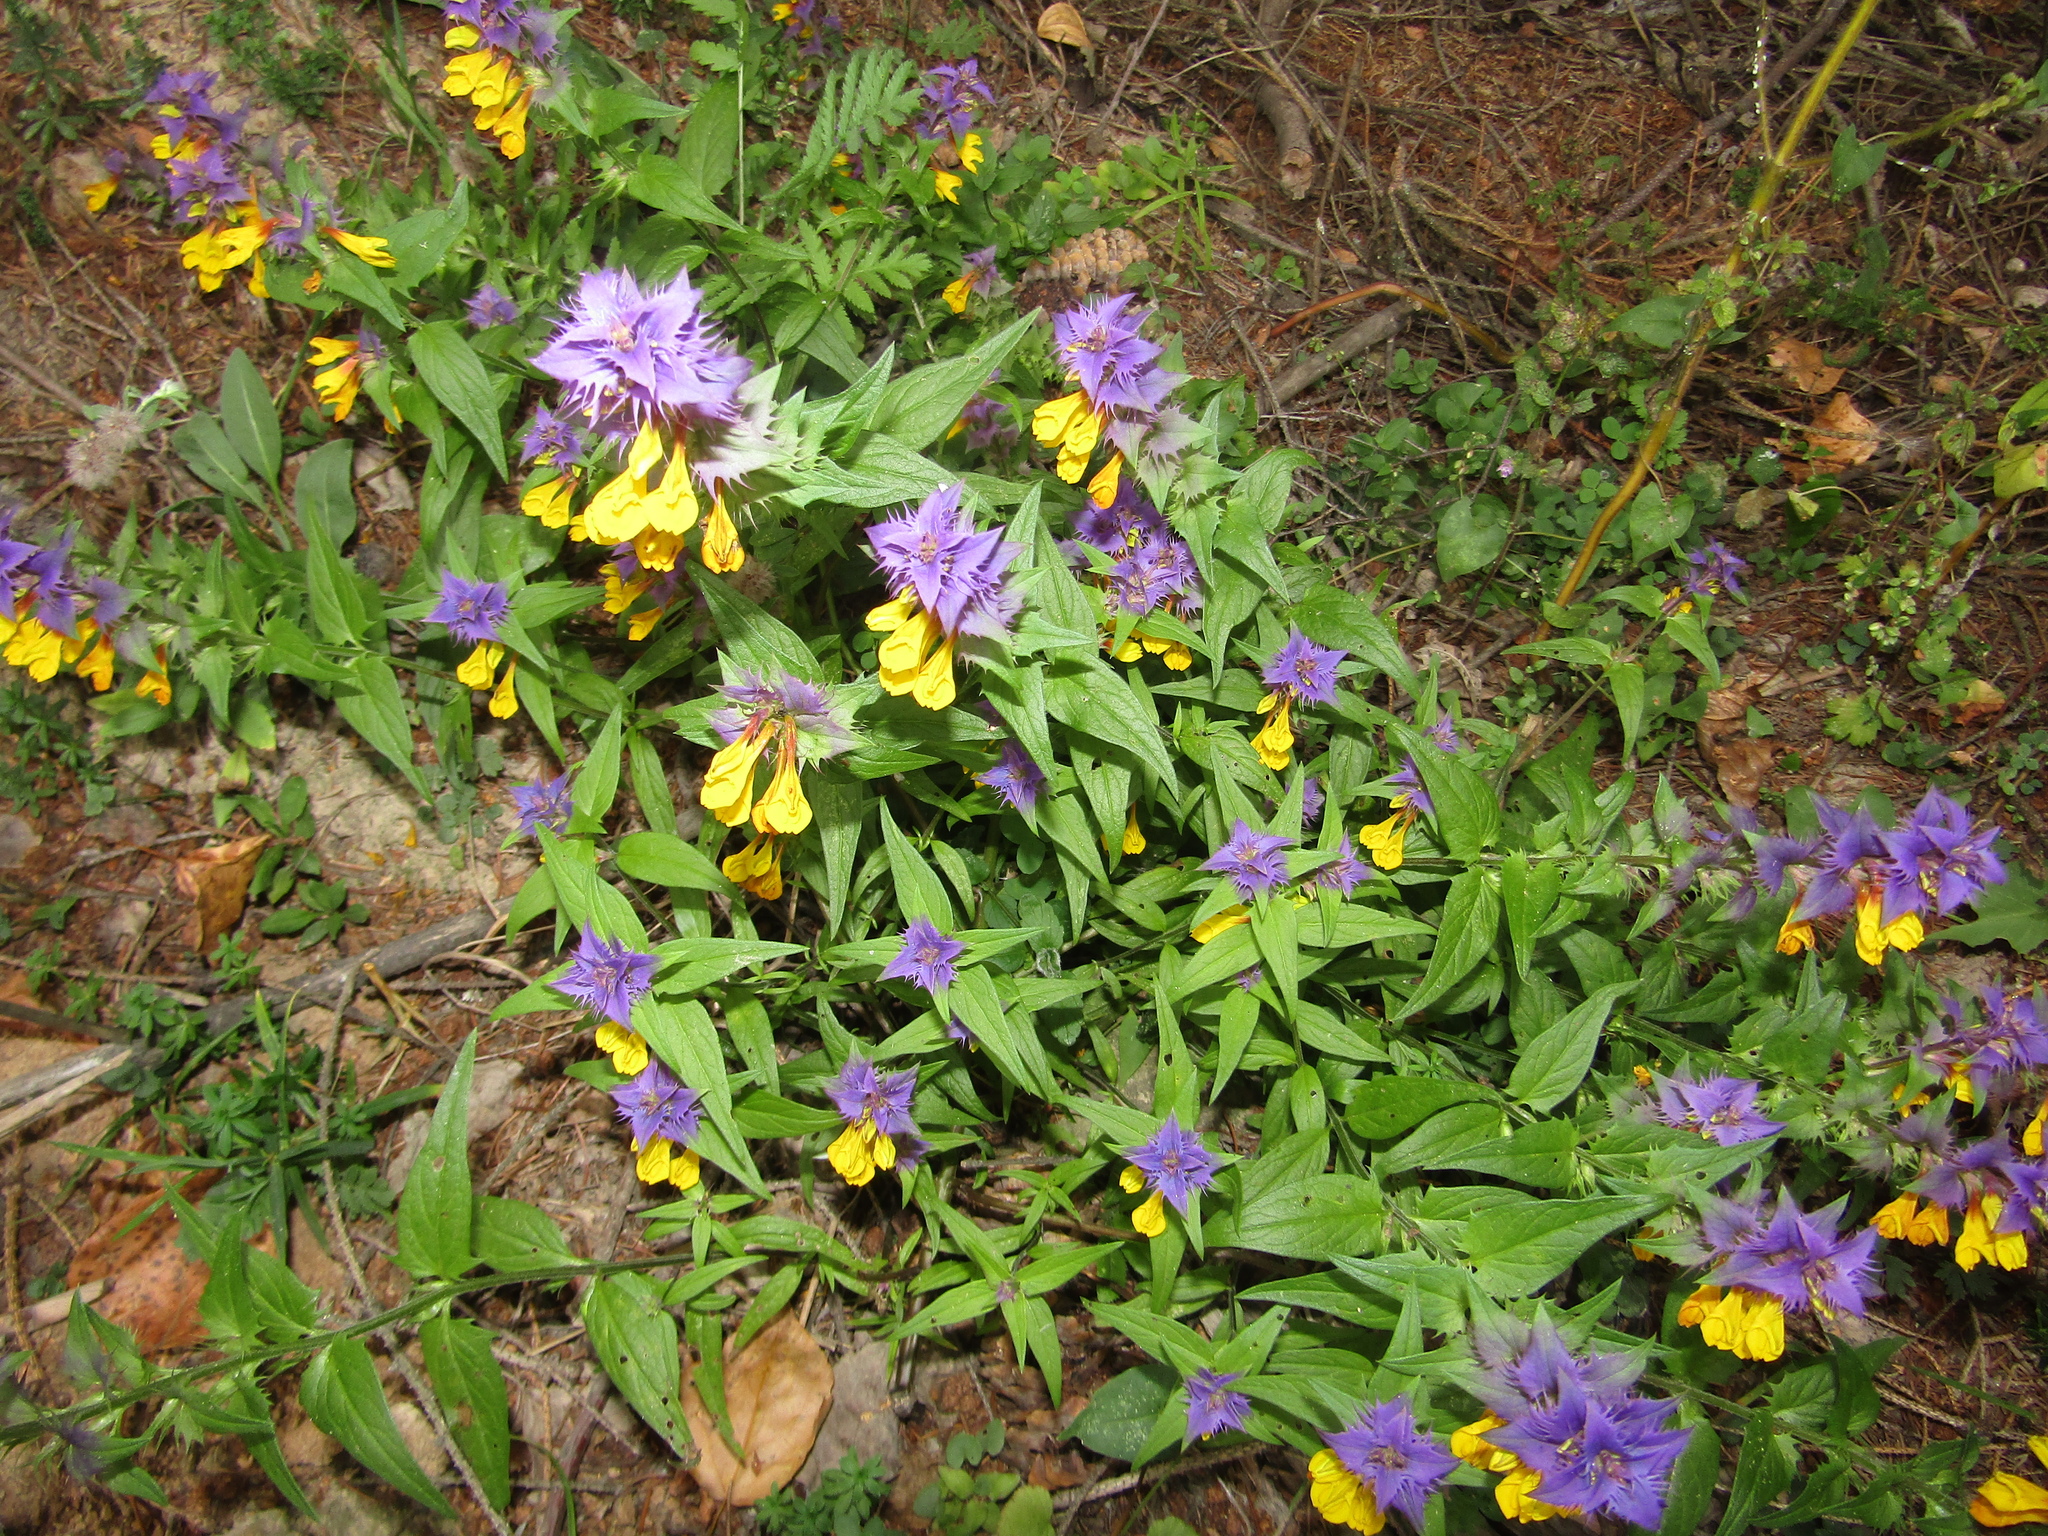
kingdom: Plantae
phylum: Tracheophyta
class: Magnoliopsida
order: Lamiales
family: Orobanchaceae
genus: Melampyrum
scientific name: Melampyrum nemorosum
